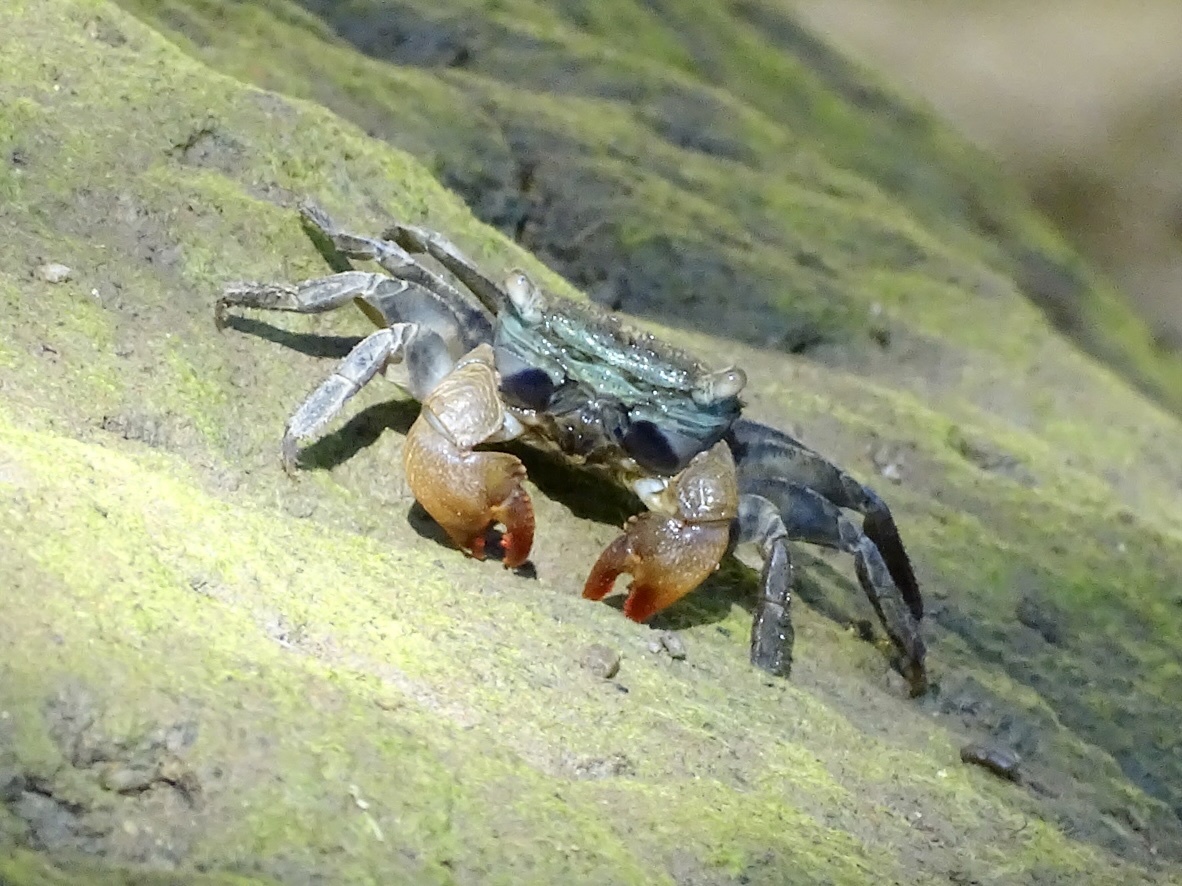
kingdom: Animalia
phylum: Arthropoda
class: Malacostraca
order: Decapoda
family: Sesarmidae
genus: Parasesarma
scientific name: Parasesarma bidens
